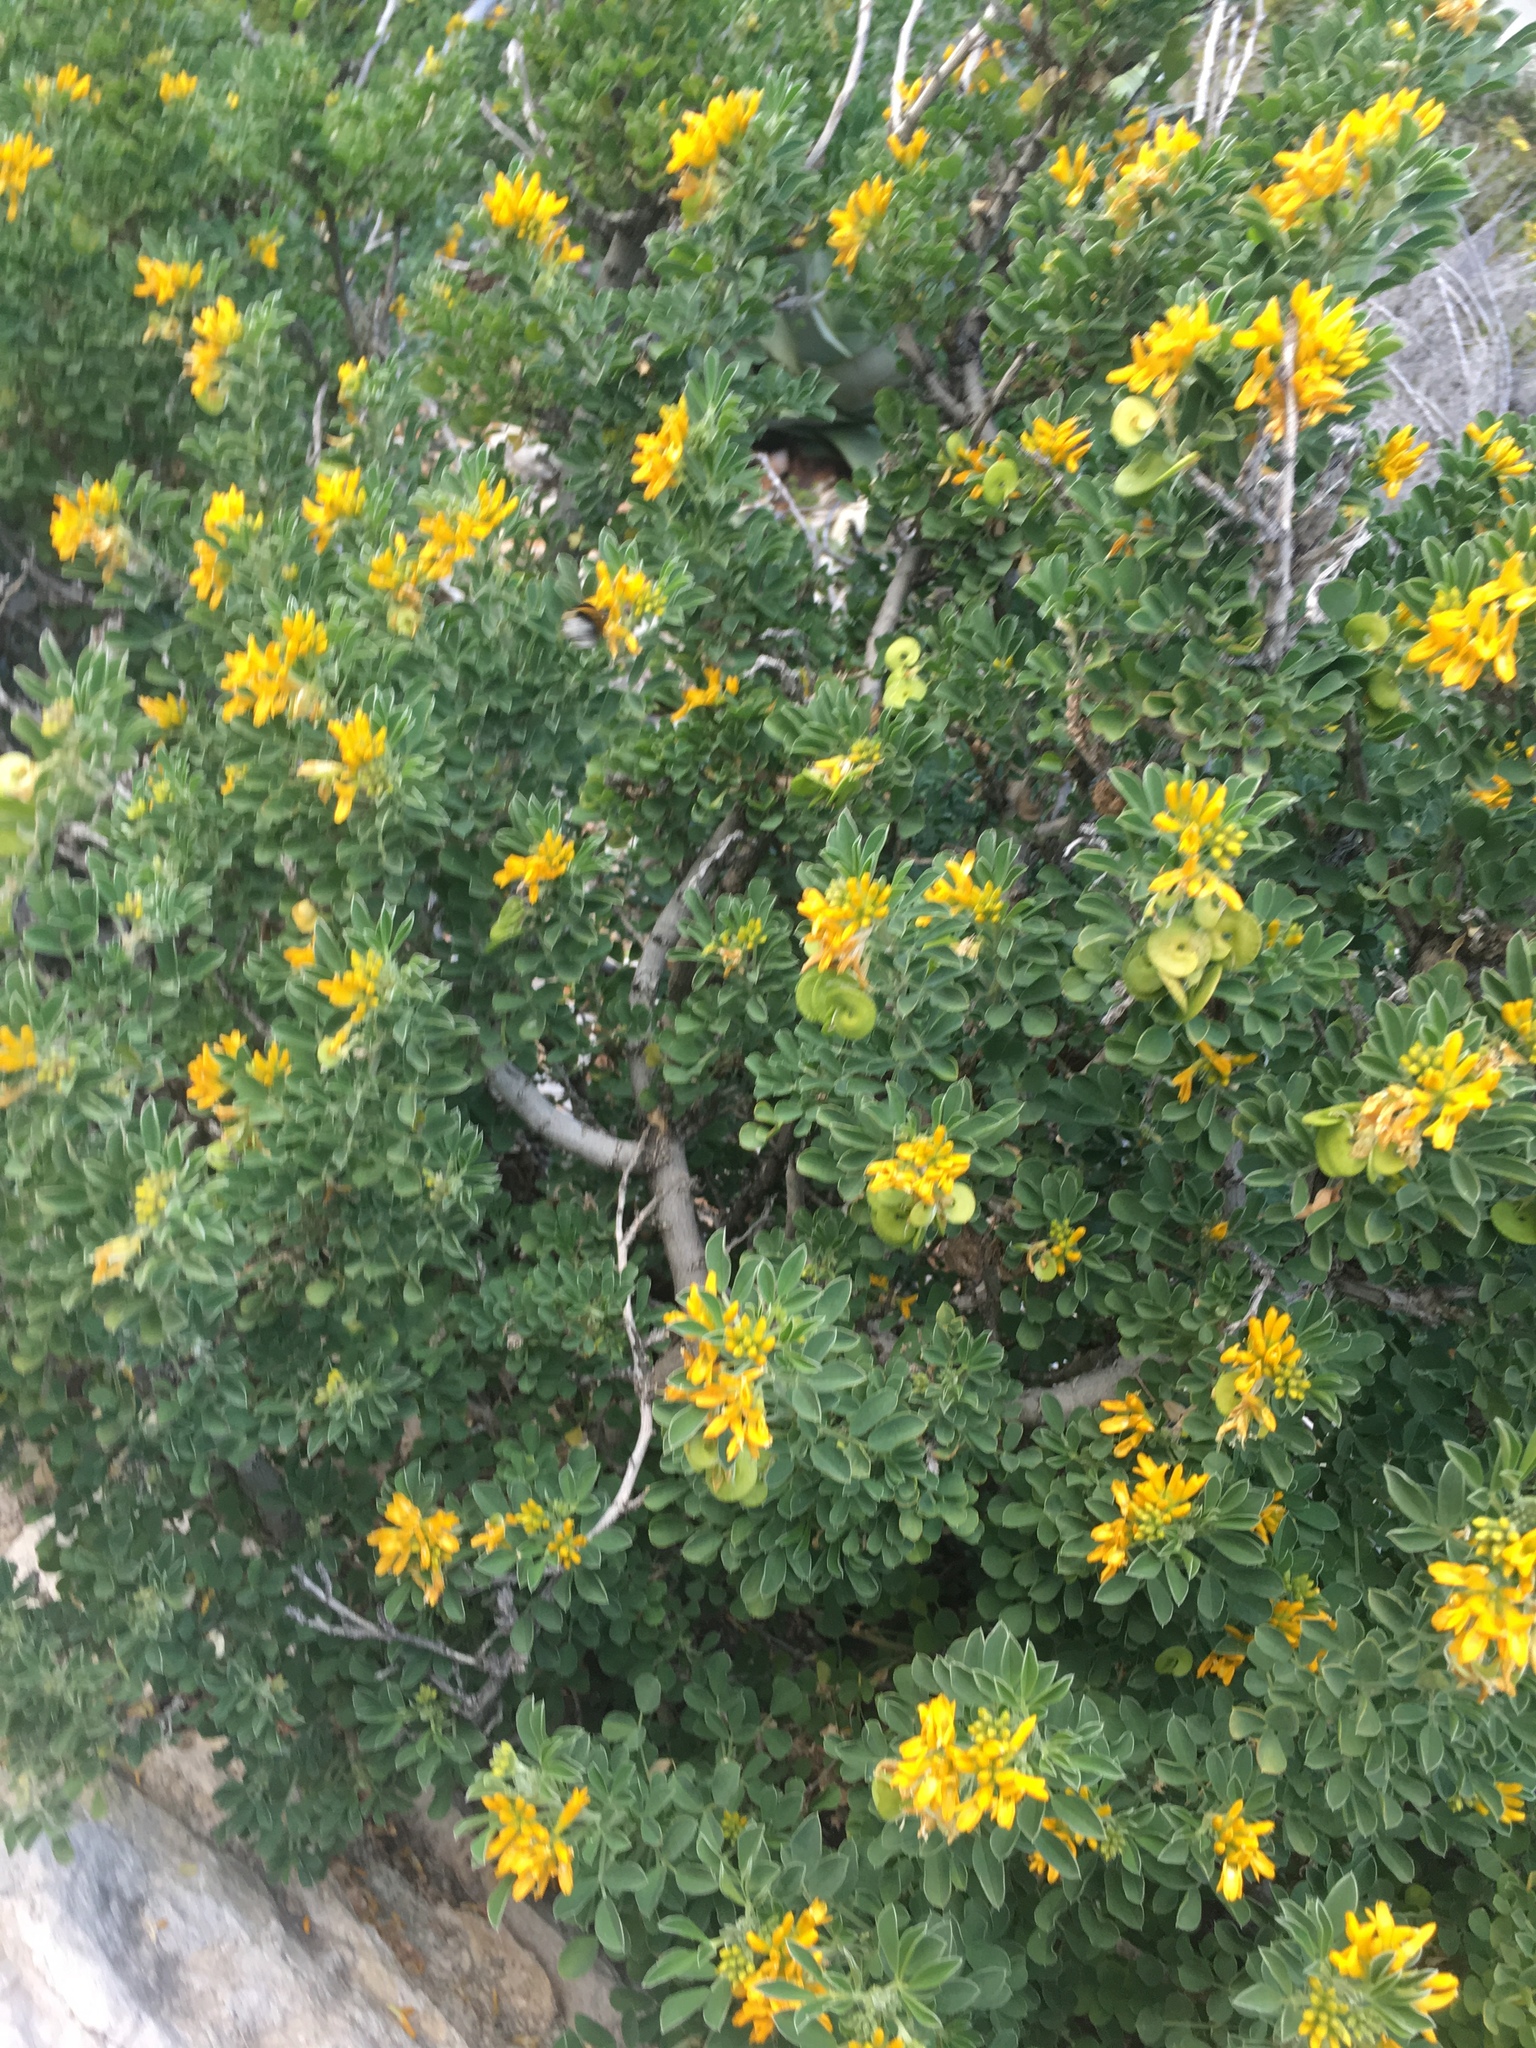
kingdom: Plantae
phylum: Tracheophyta
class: Magnoliopsida
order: Fabales
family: Fabaceae
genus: Medicago
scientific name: Medicago arborea
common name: Moon trefoil
